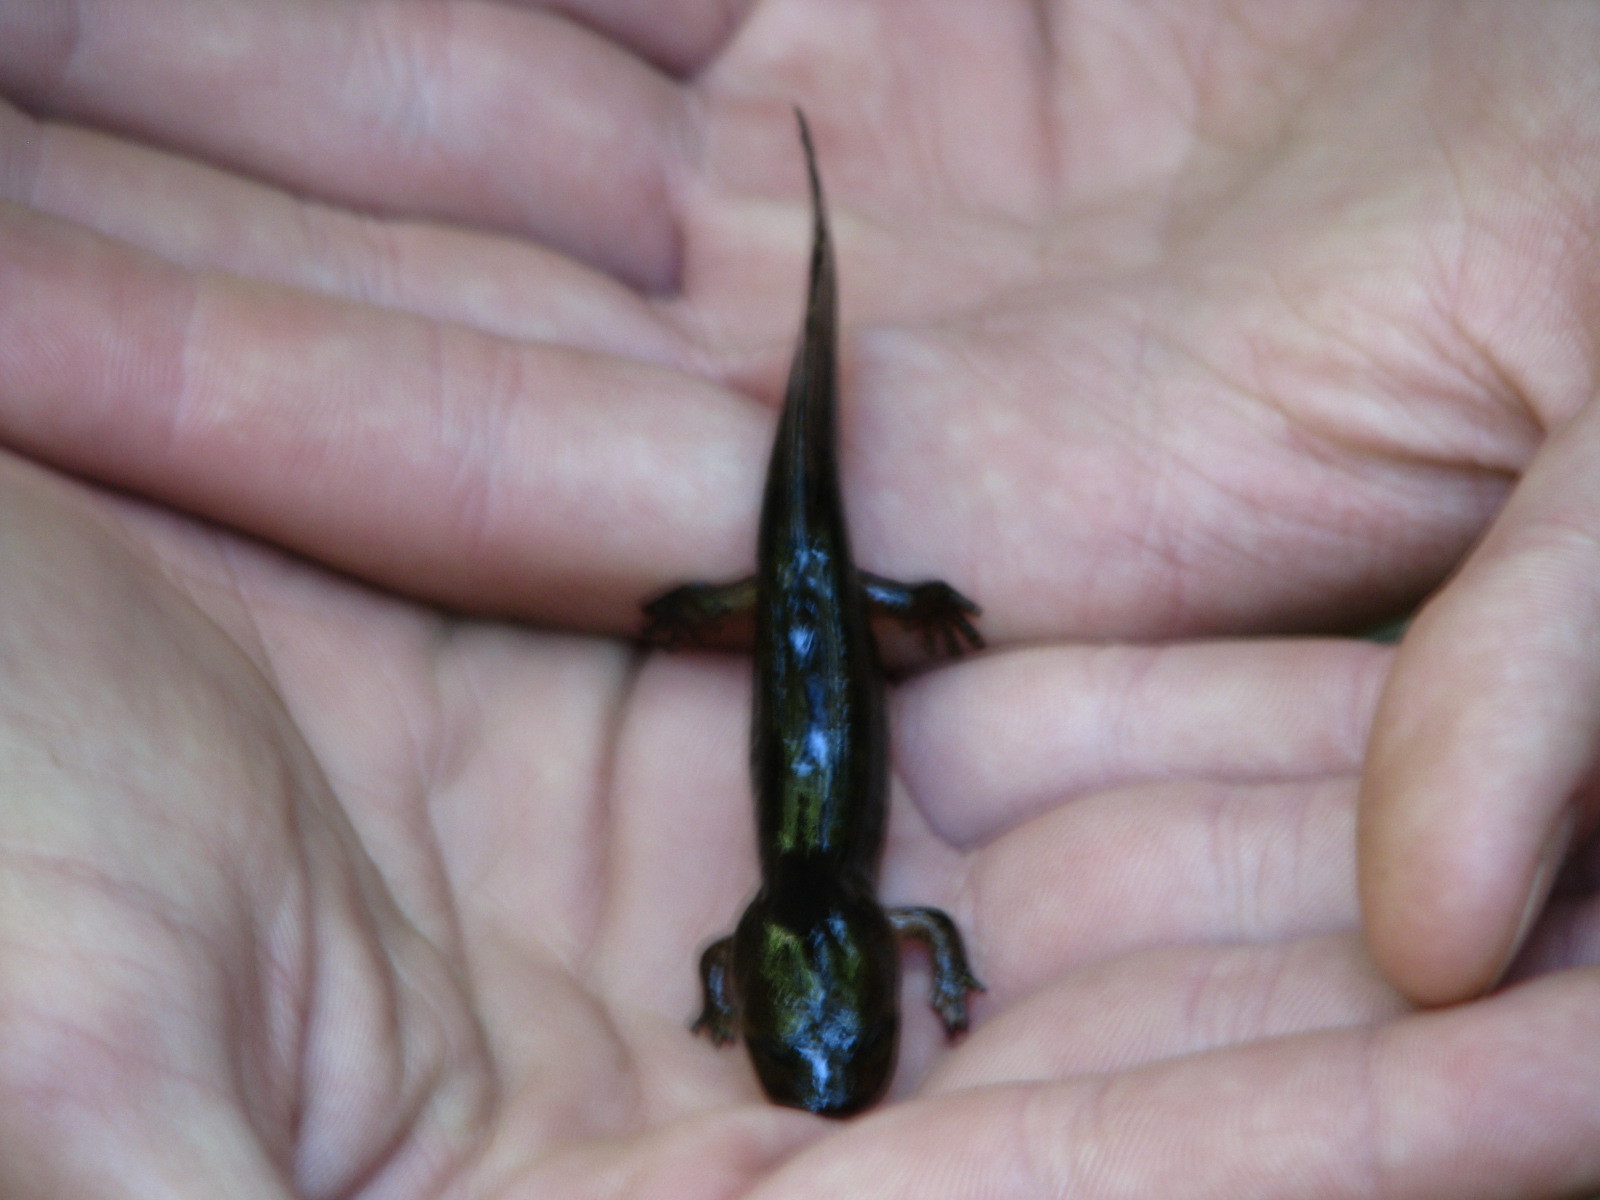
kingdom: Animalia
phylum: Chordata
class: Amphibia
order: Caudata
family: Ambystomatidae
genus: Dicamptodon
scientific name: Dicamptodon ensatus
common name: California giant salamander
